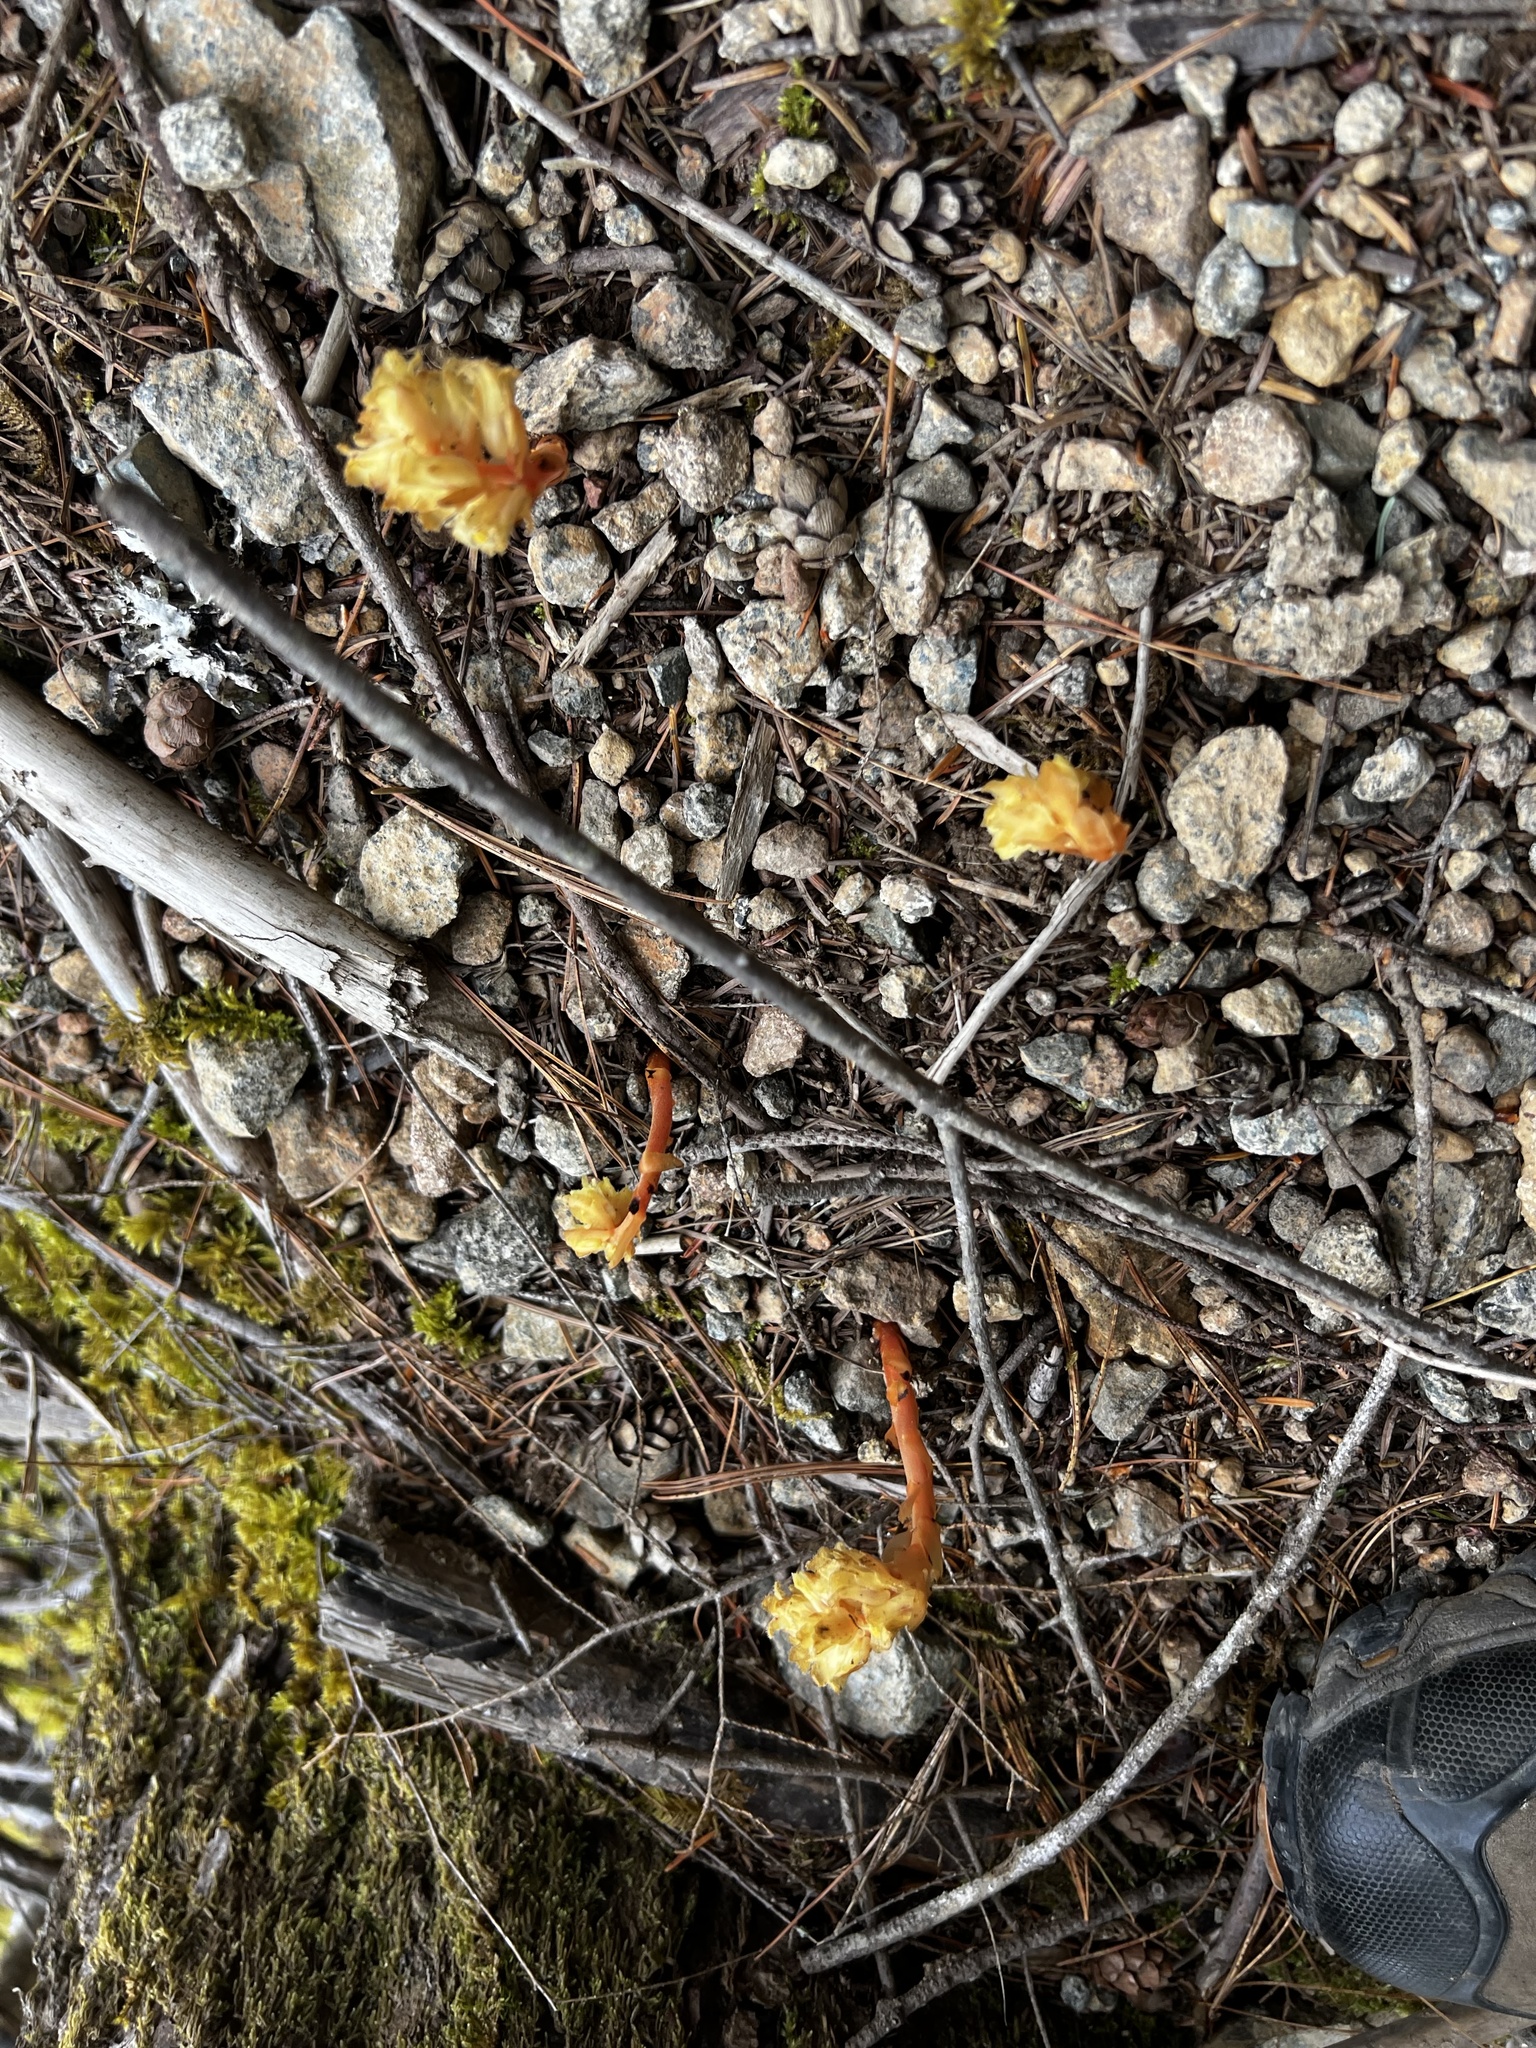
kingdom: Plantae
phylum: Tracheophyta
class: Magnoliopsida
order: Ericales
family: Ericaceae
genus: Hypopitys
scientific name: Hypopitys monotropa
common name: Yellow bird's-nest
